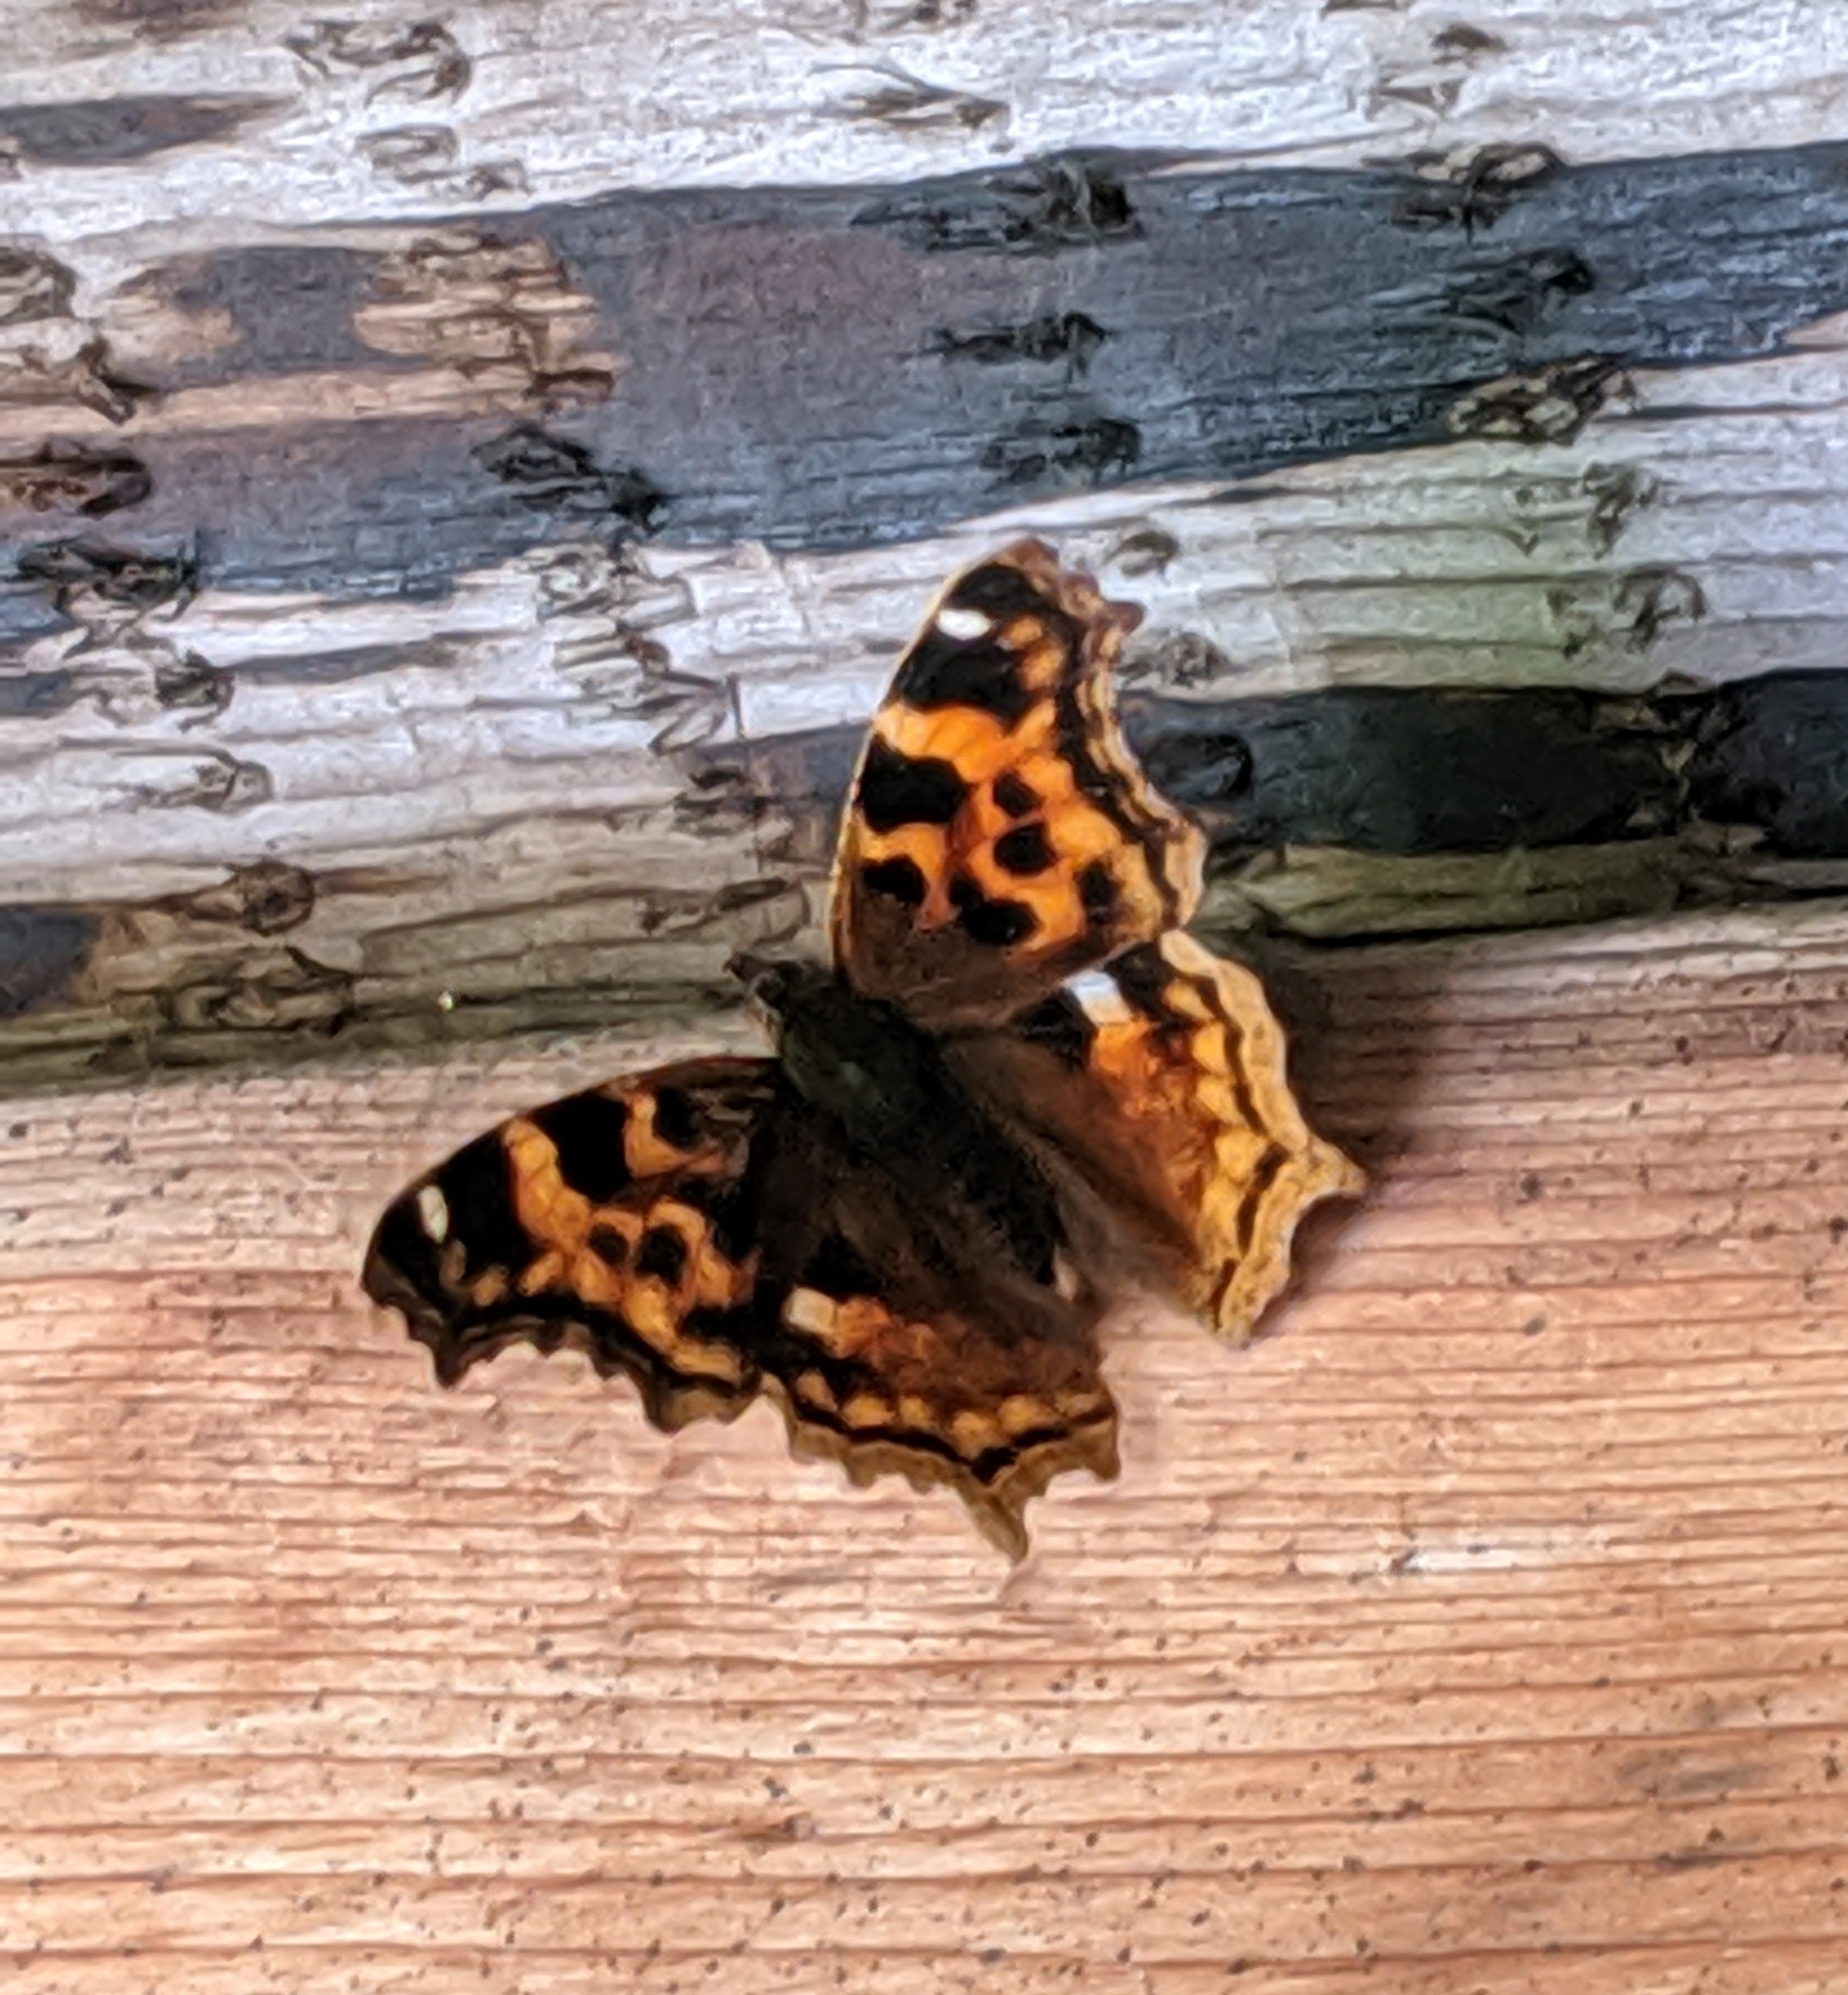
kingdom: Animalia
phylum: Arthropoda
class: Insecta
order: Lepidoptera
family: Nymphalidae
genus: Polygonia
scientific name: Polygonia vaualbum
